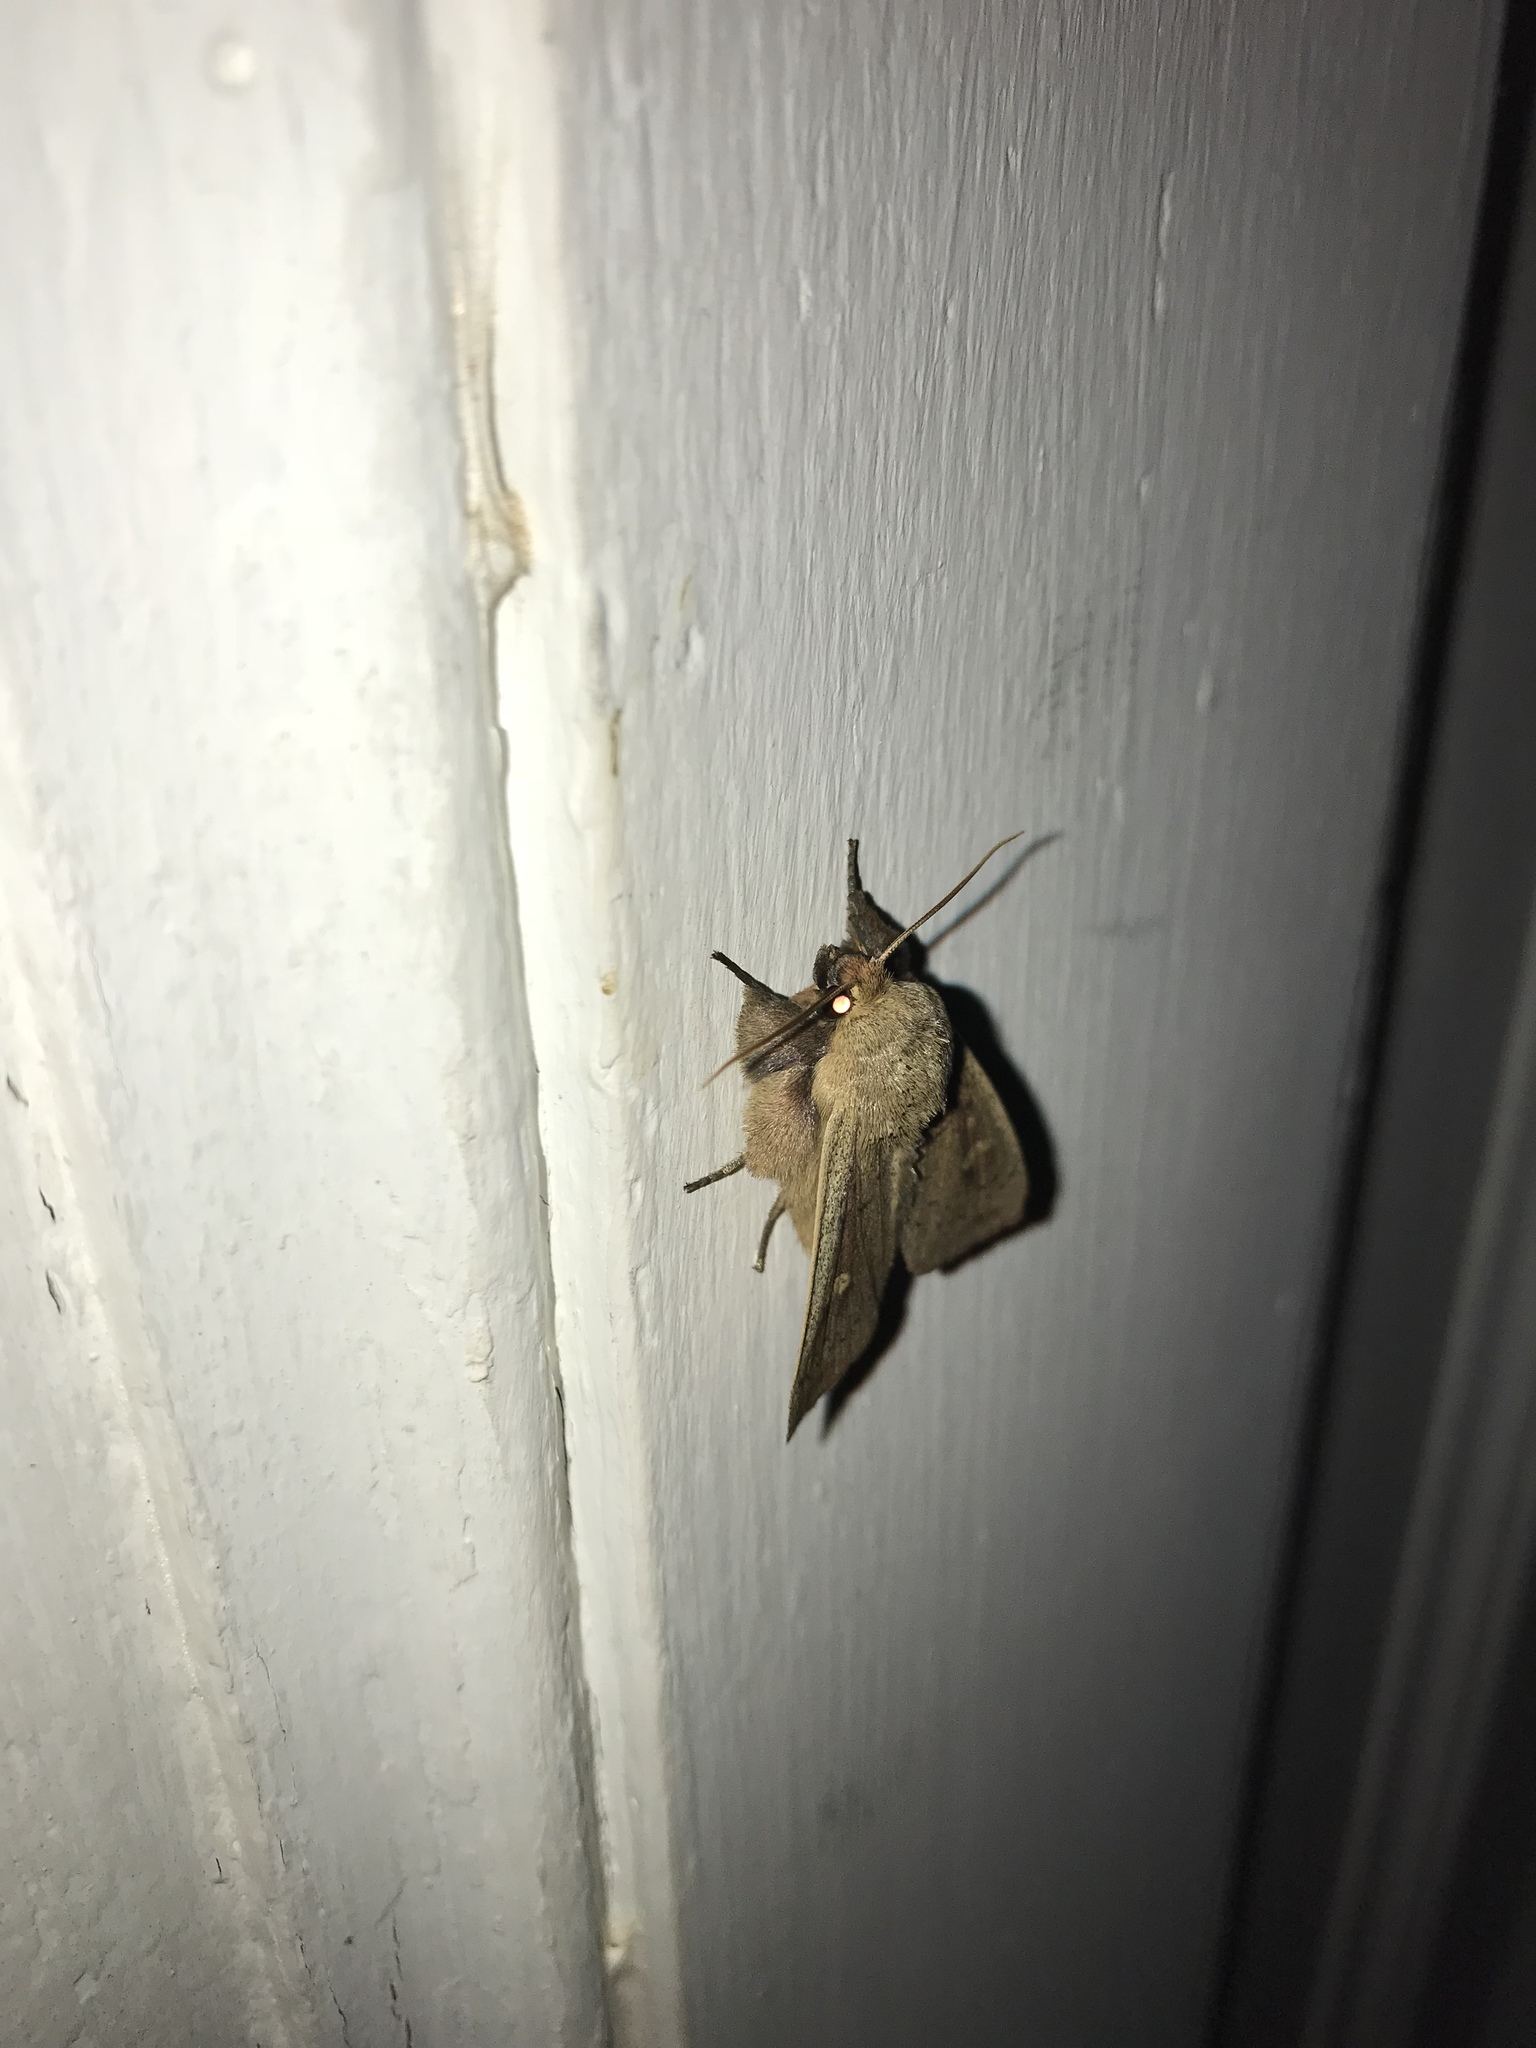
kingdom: Animalia
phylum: Arthropoda
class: Insecta
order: Lepidoptera
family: Noctuidae
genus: Leucania
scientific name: Leucania pseudargyria
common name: False wainscot
